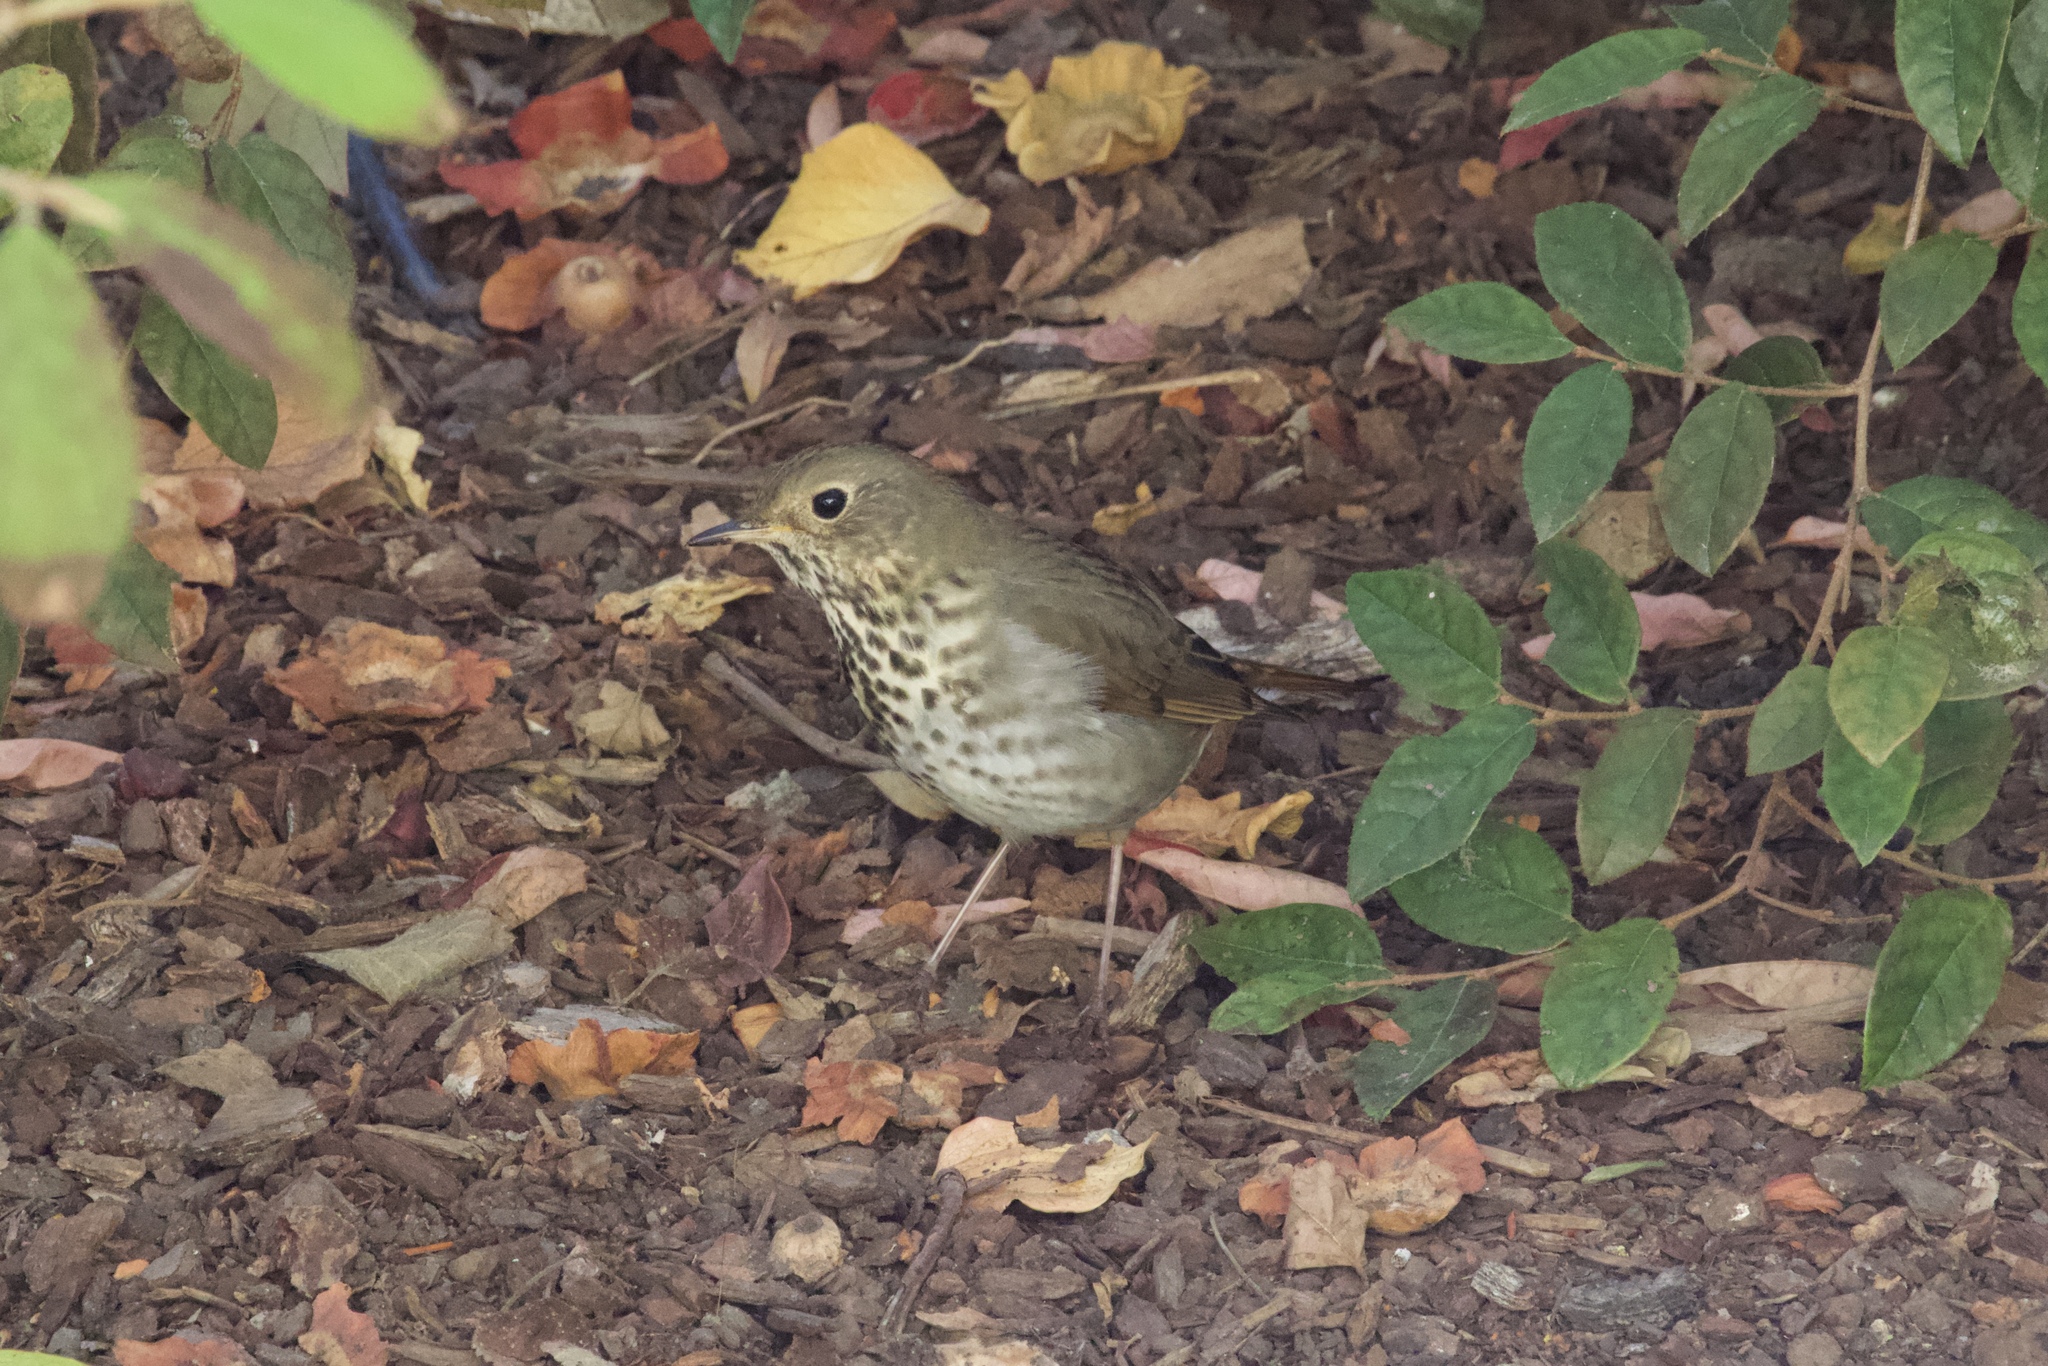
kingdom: Animalia
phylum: Chordata
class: Aves
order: Passeriformes
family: Turdidae
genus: Catharus
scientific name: Catharus guttatus
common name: Hermit thrush
